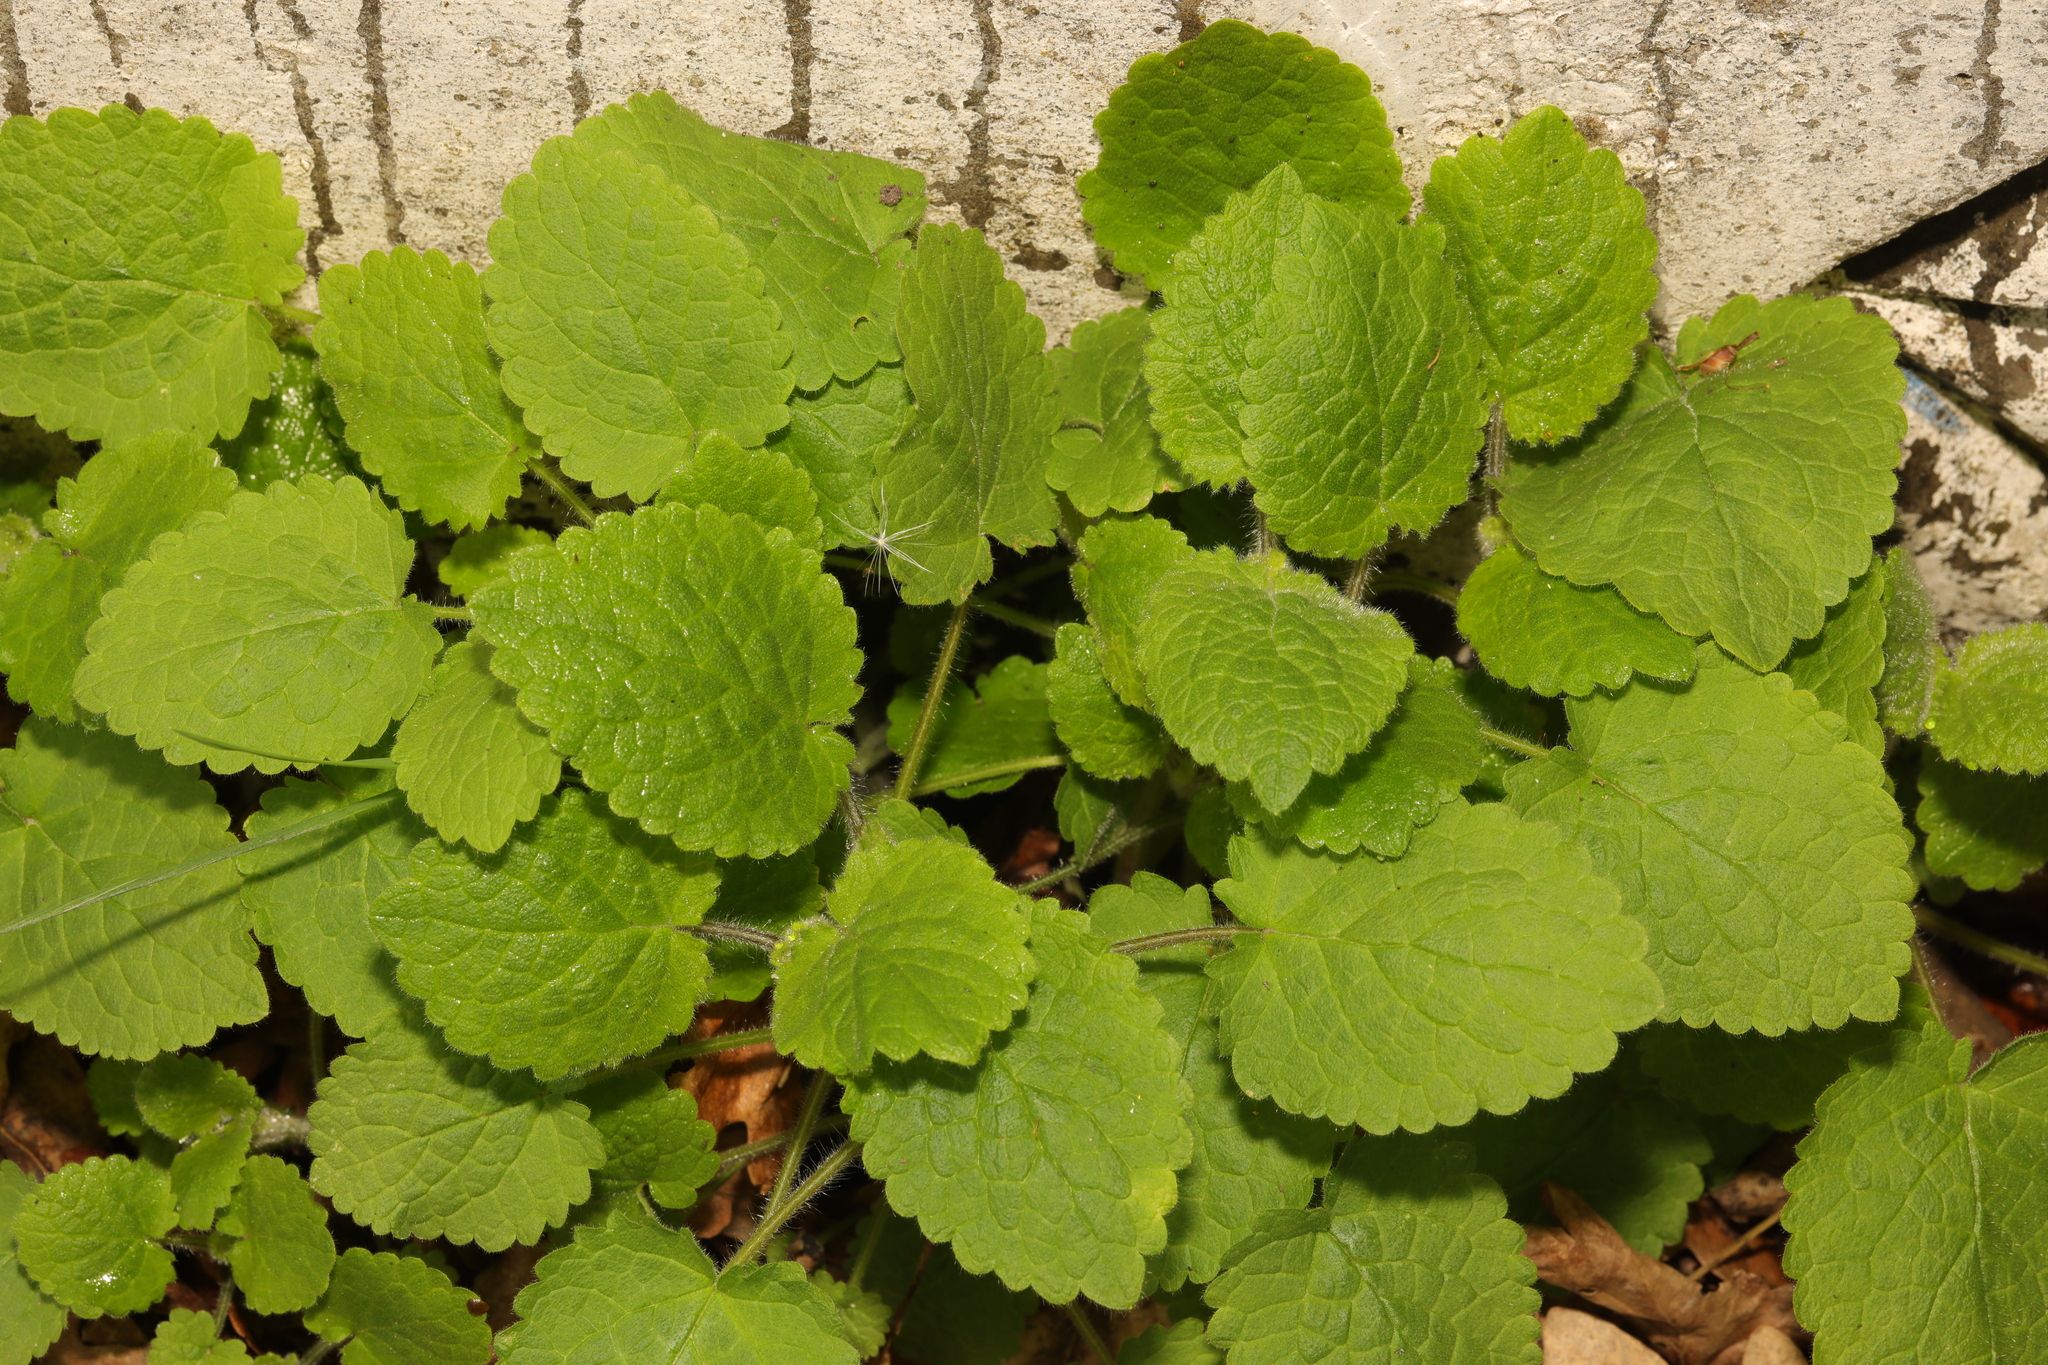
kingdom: Plantae
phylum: Tracheophyta
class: Magnoliopsida
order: Lamiales
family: Lamiaceae
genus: Stachys
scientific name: Stachys sylvatica
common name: Hedge woundwort
